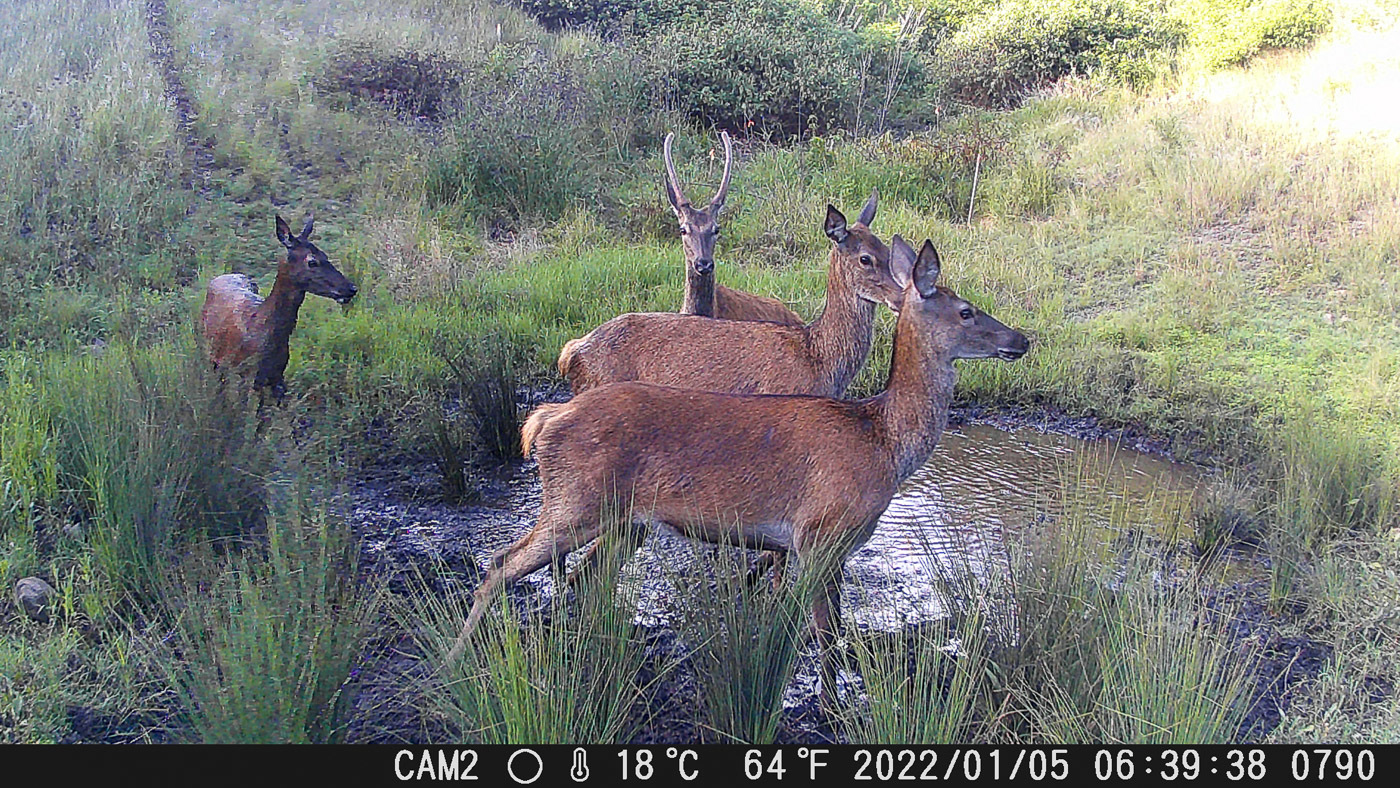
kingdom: Animalia
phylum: Chordata
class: Mammalia
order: Artiodactyla
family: Cervidae
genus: Cervus
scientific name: Cervus elaphus
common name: Red deer
